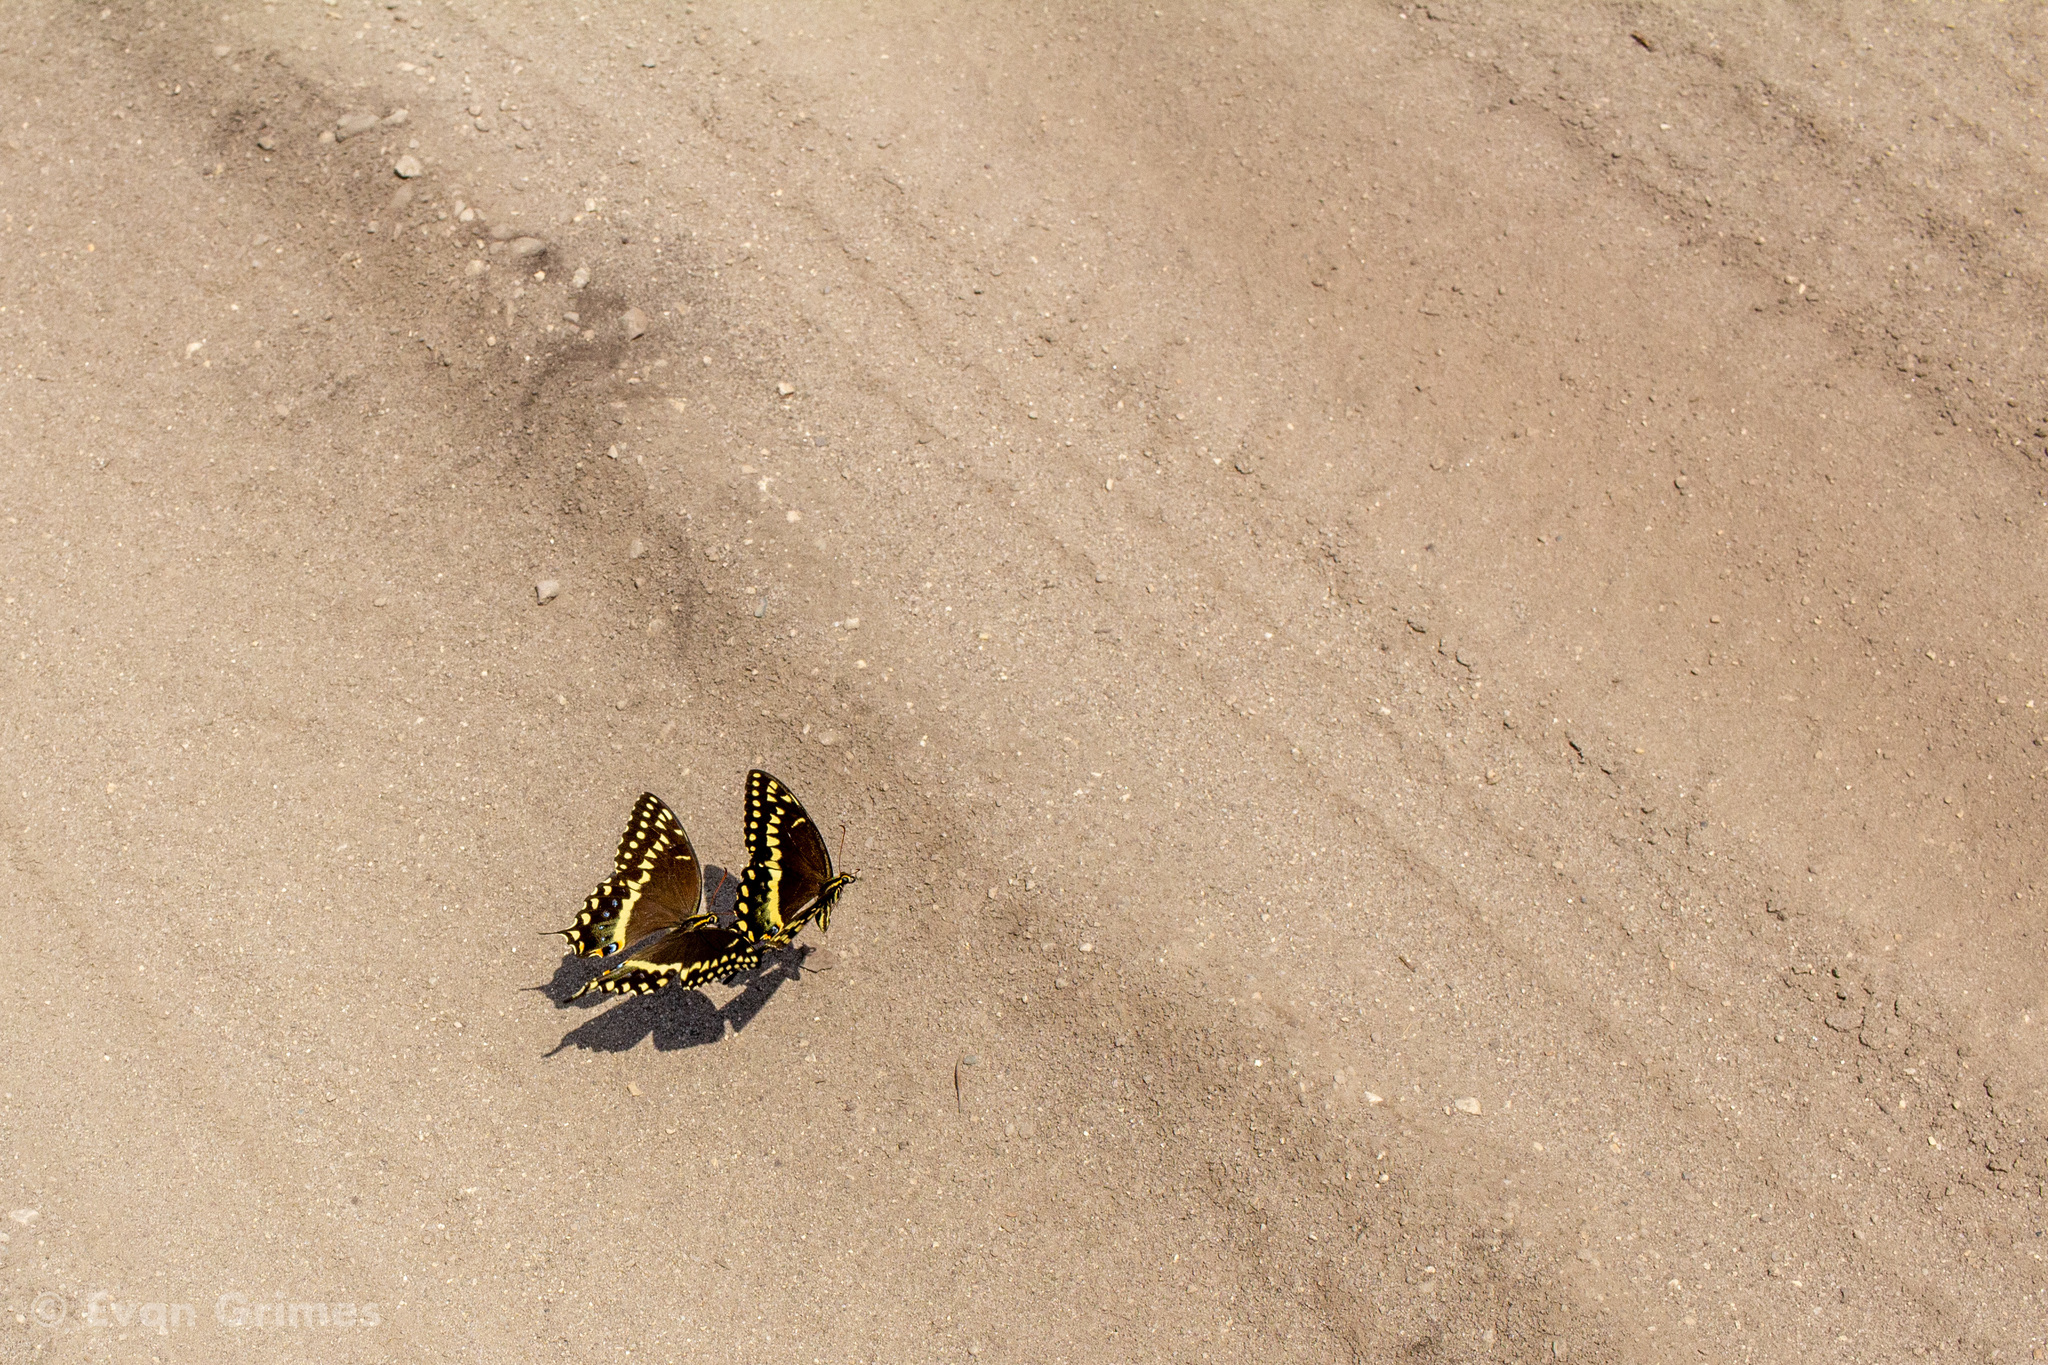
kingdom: Animalia
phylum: Arthropoda
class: Insecta
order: Lepidoptera
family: Papilionidae
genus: Papilio
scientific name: Papilio palamedes
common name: Palamedes swallowtail
